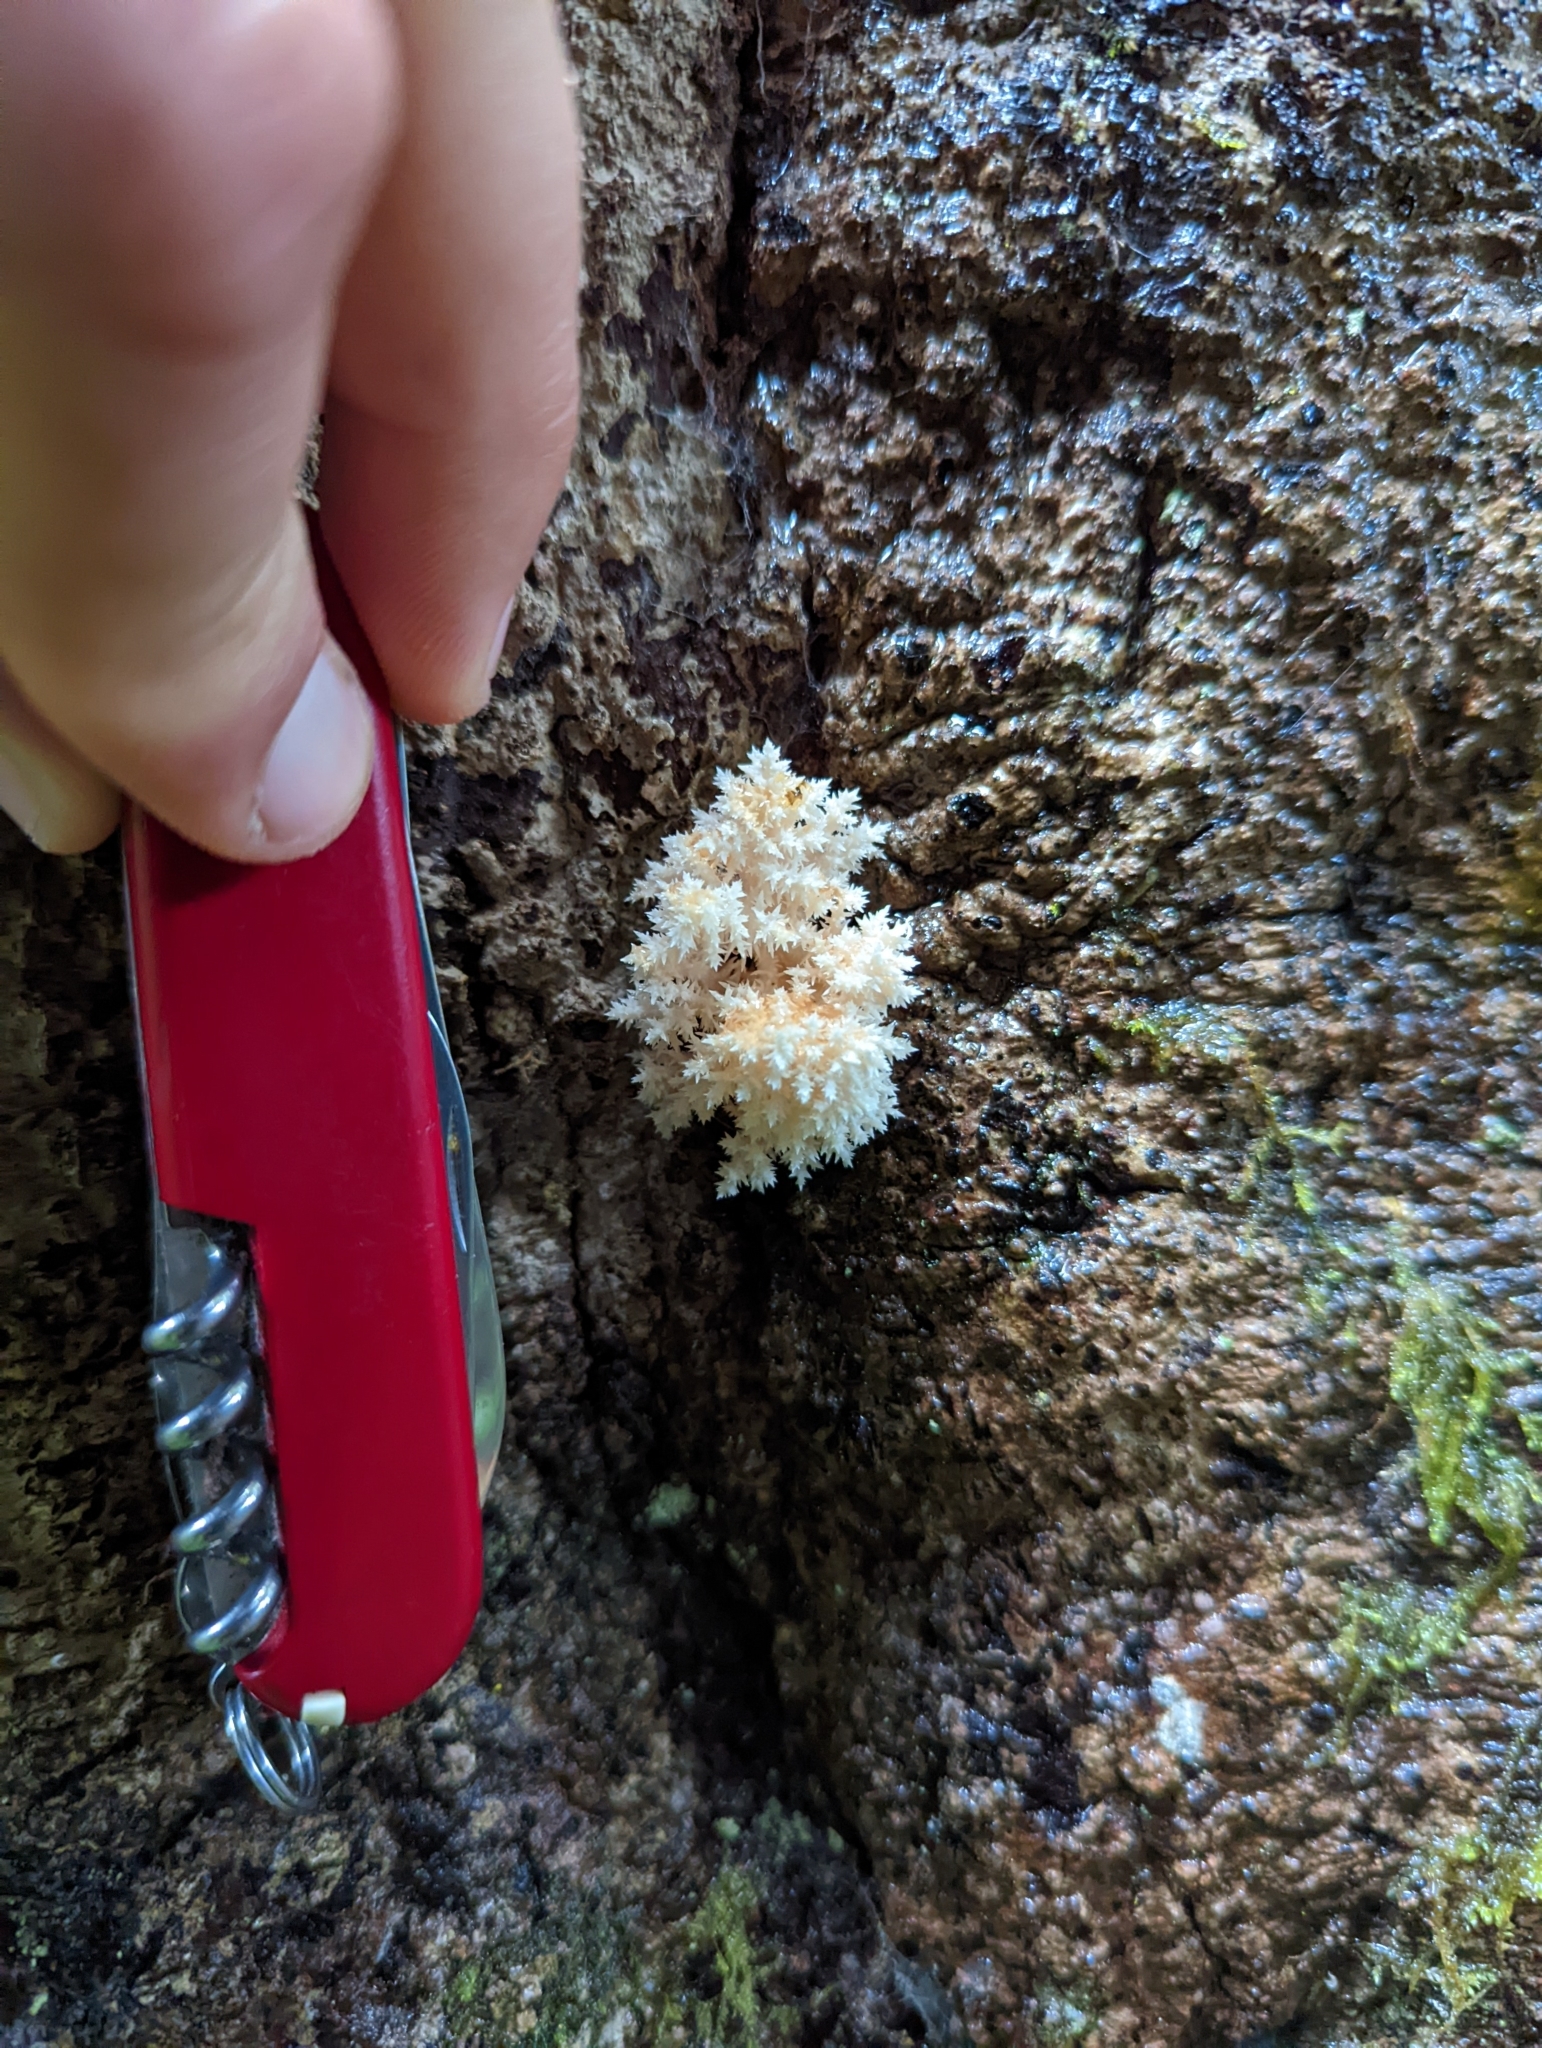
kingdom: Fungi
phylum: Basidiomycota
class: Agaricomycetes
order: Russulales
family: Hericiaceae
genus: Hericium
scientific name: Hericium novae-zealandiae
